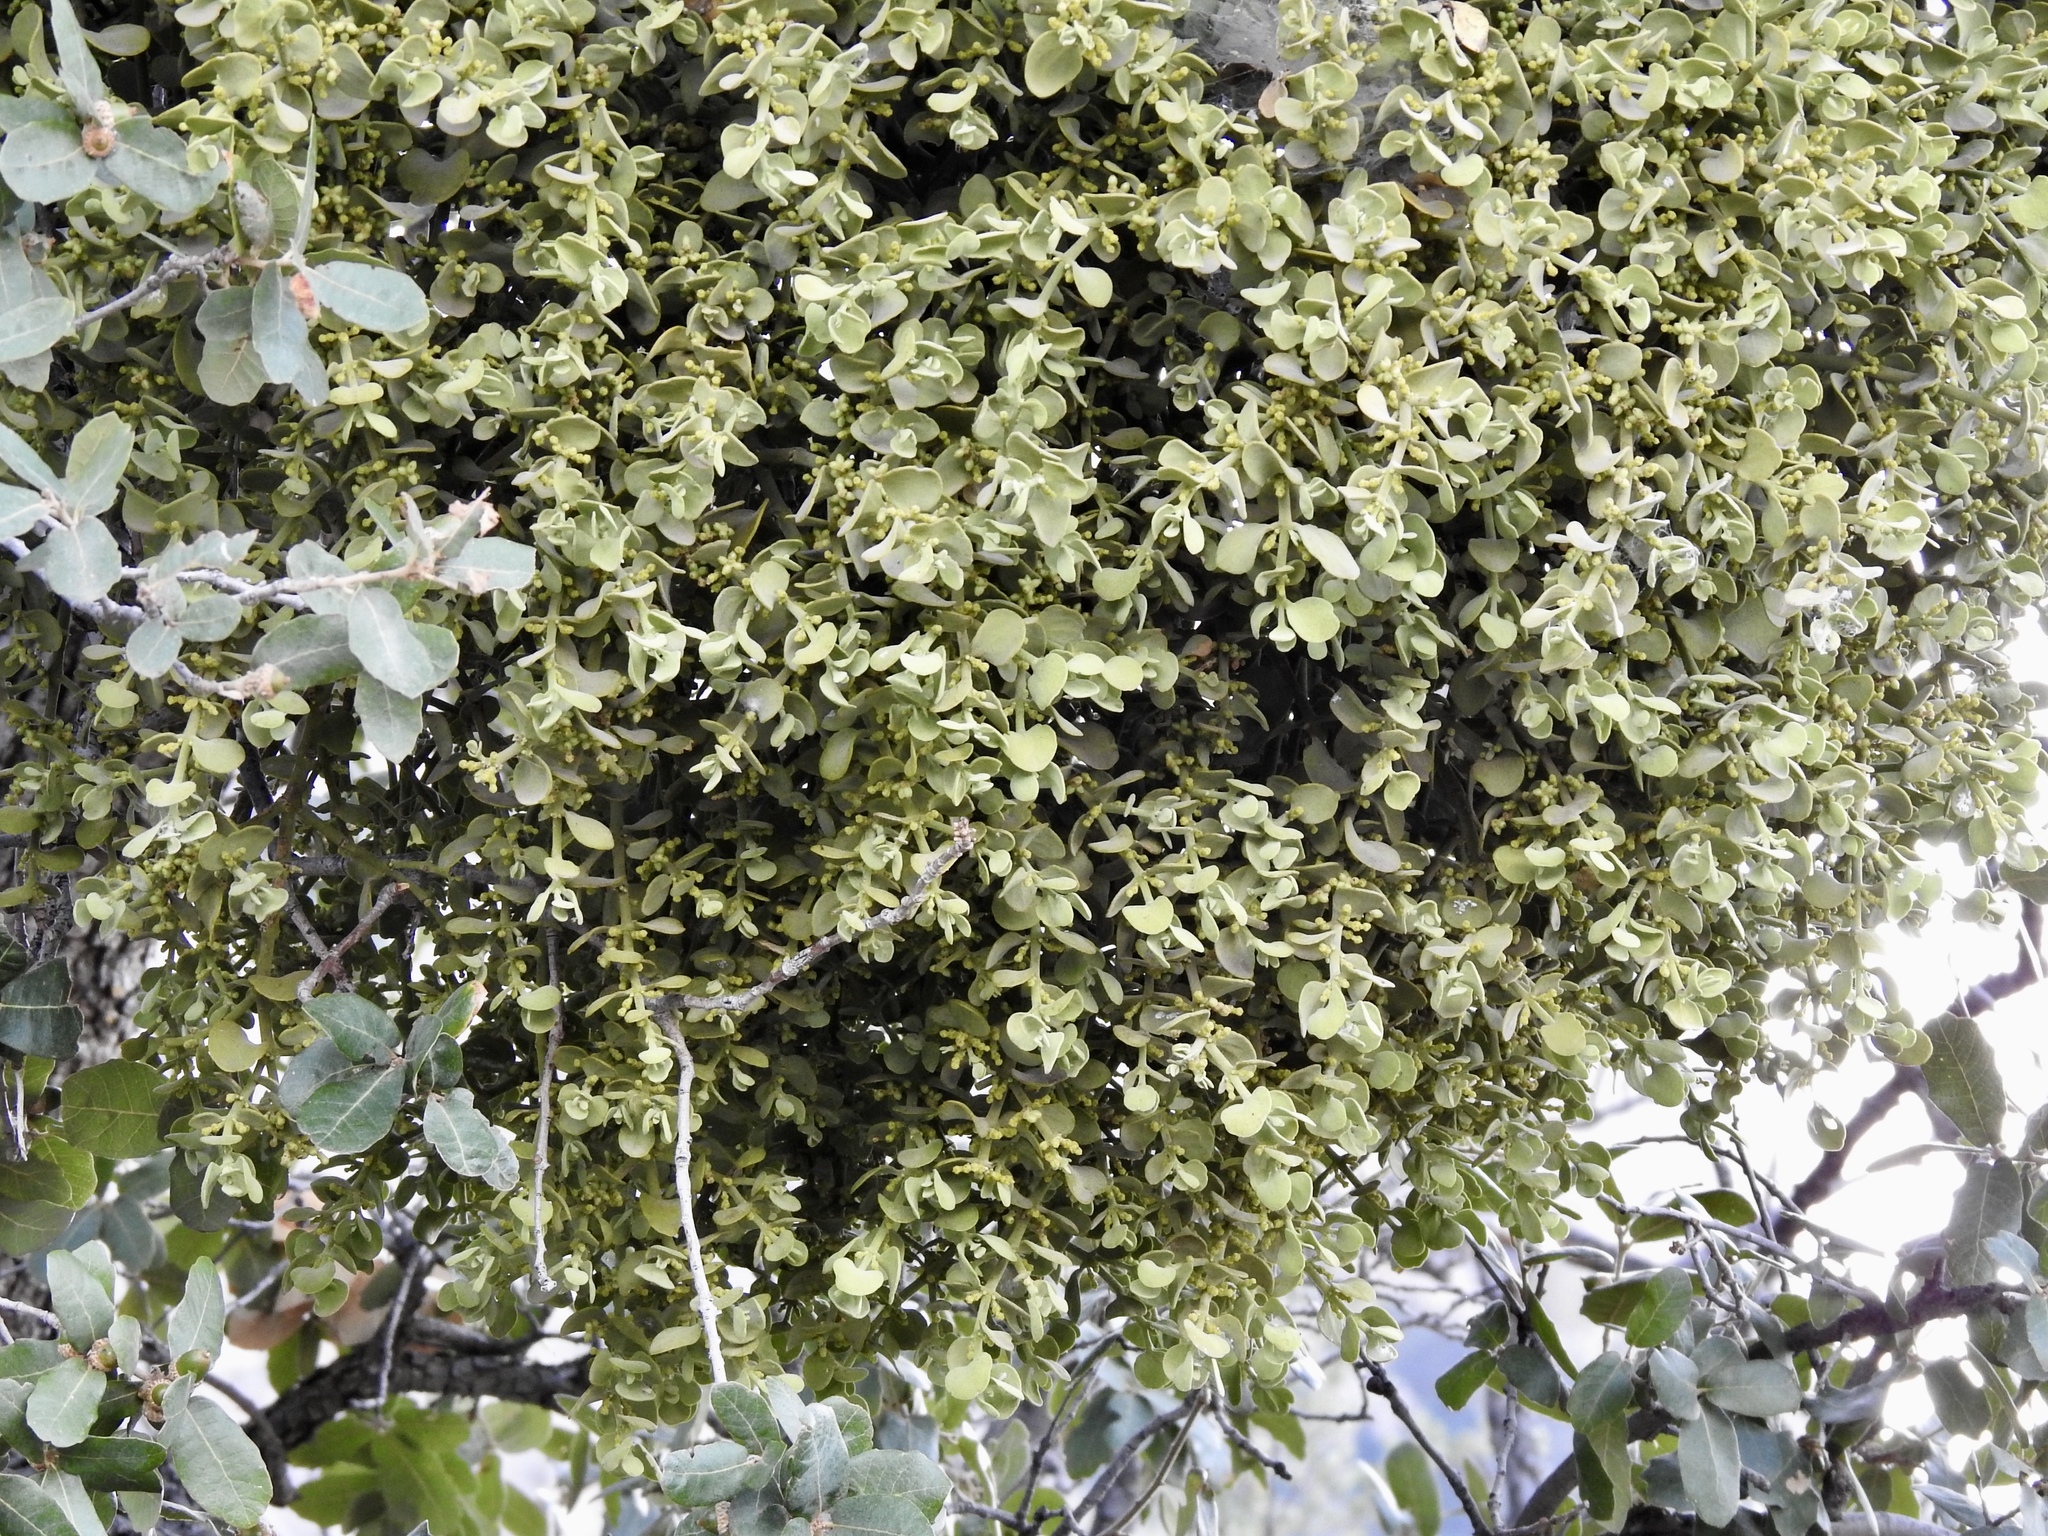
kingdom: Plantae
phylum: Tracheophyta
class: Magnoliopsida
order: Santalales
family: Viscaceae
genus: Phoradendron
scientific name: Phoradendron coryae
